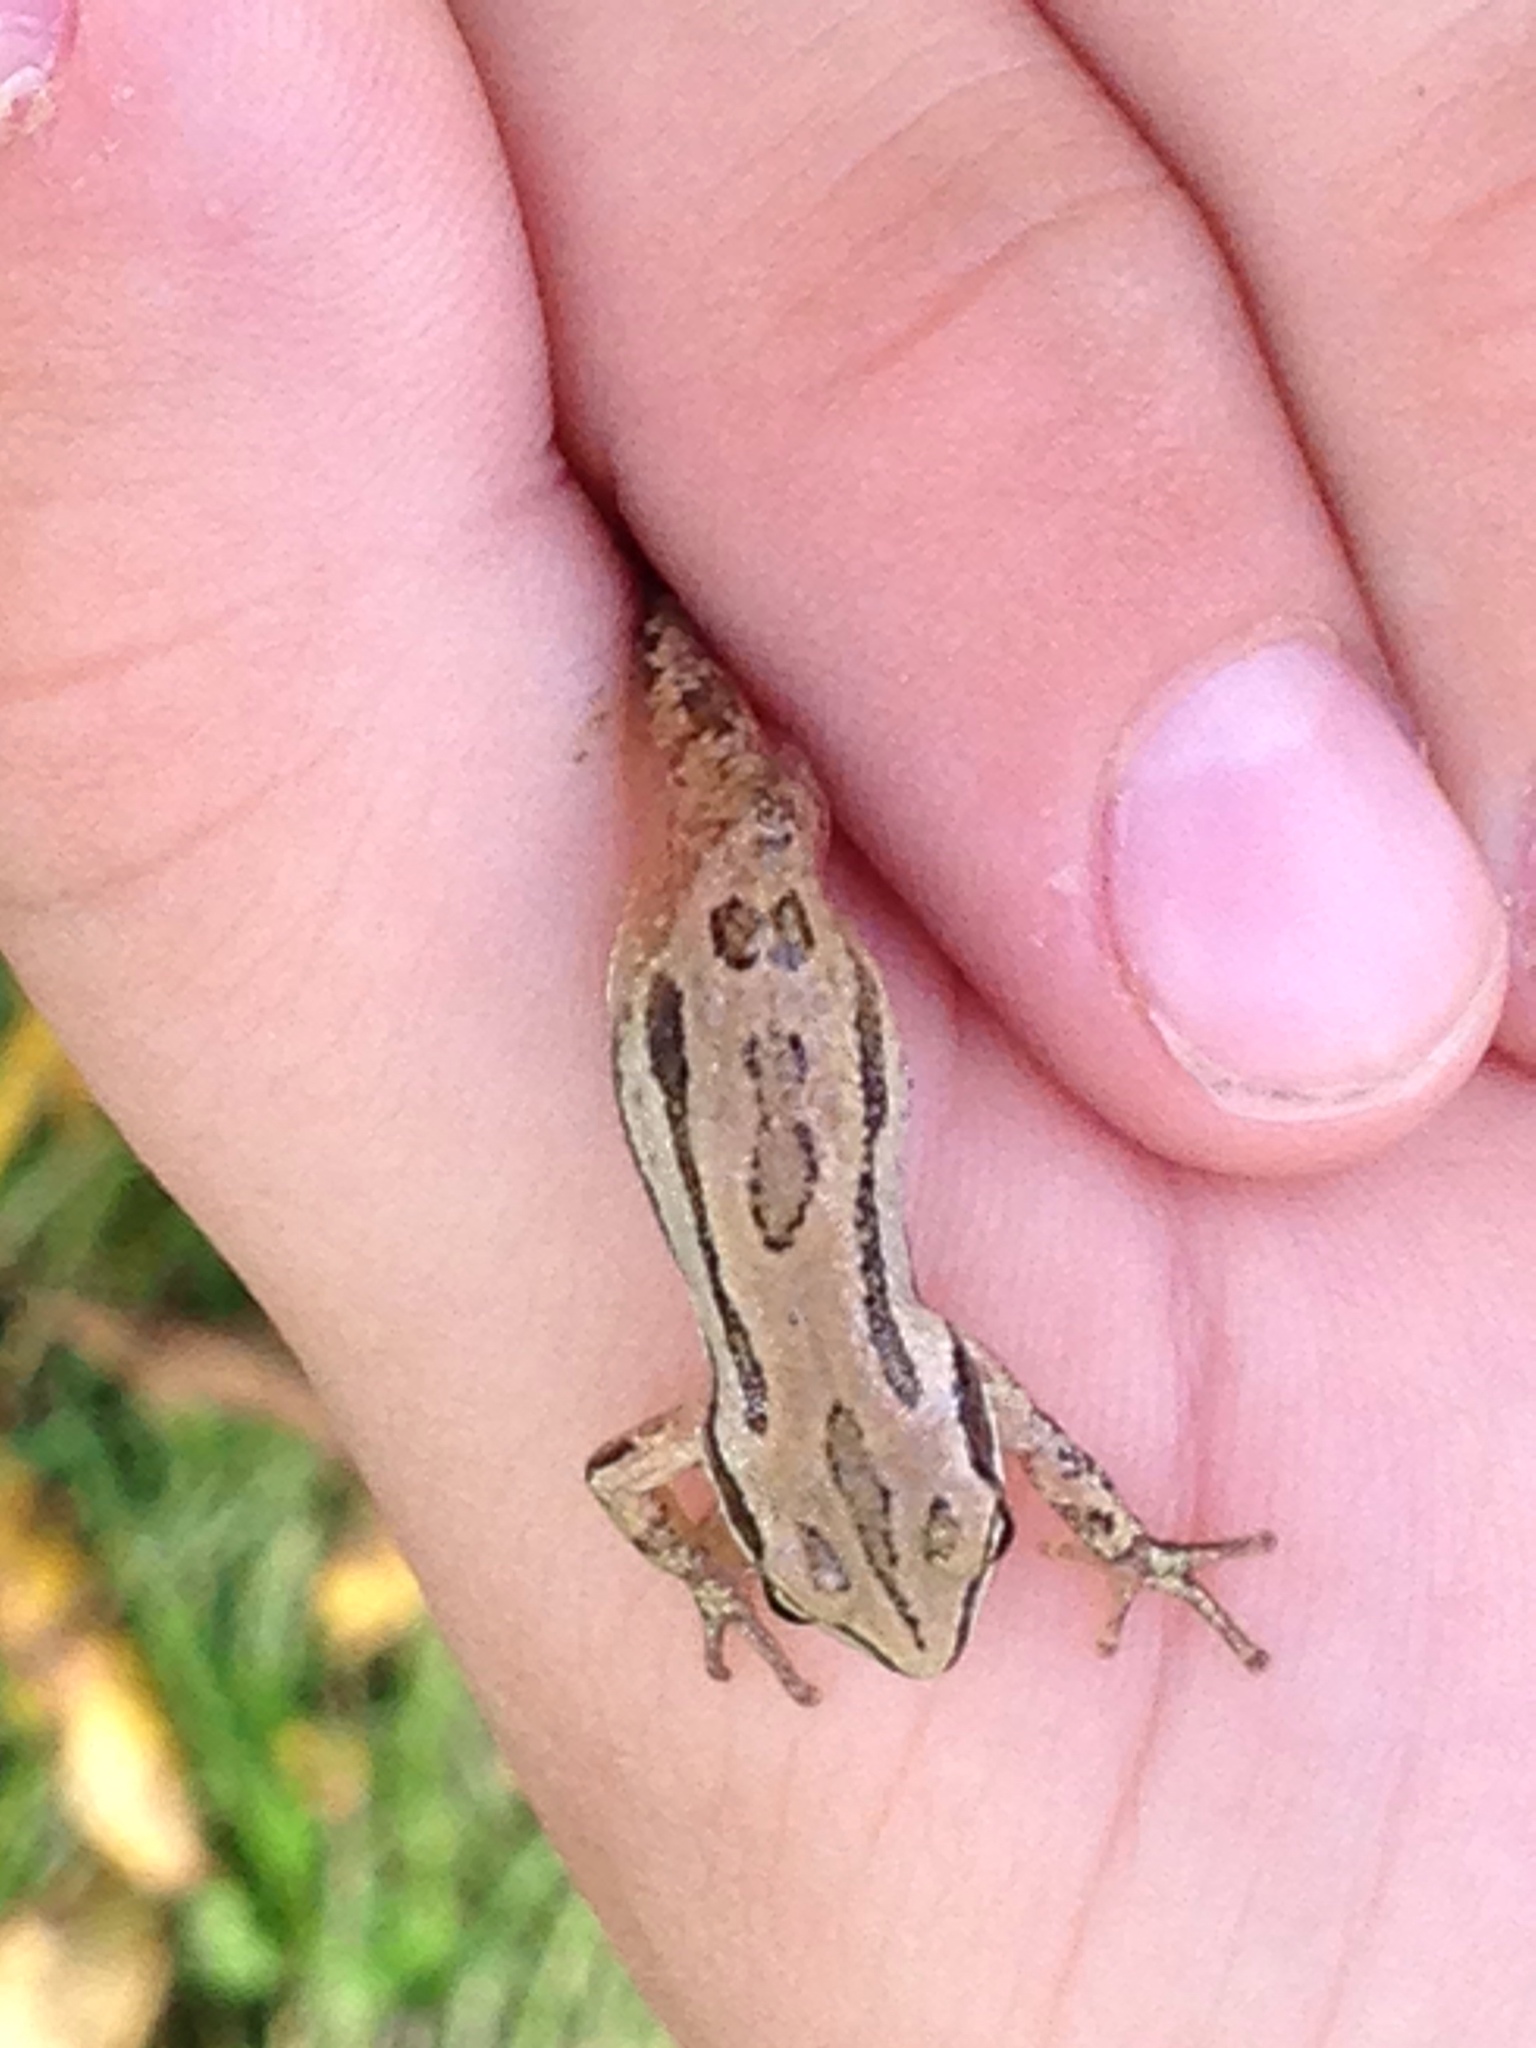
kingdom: Animalia
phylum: Chordata
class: Amphibia
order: Anura
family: Hylidae
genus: Pseudacris
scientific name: Pseudacris maculata
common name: Boreal chorus frog
